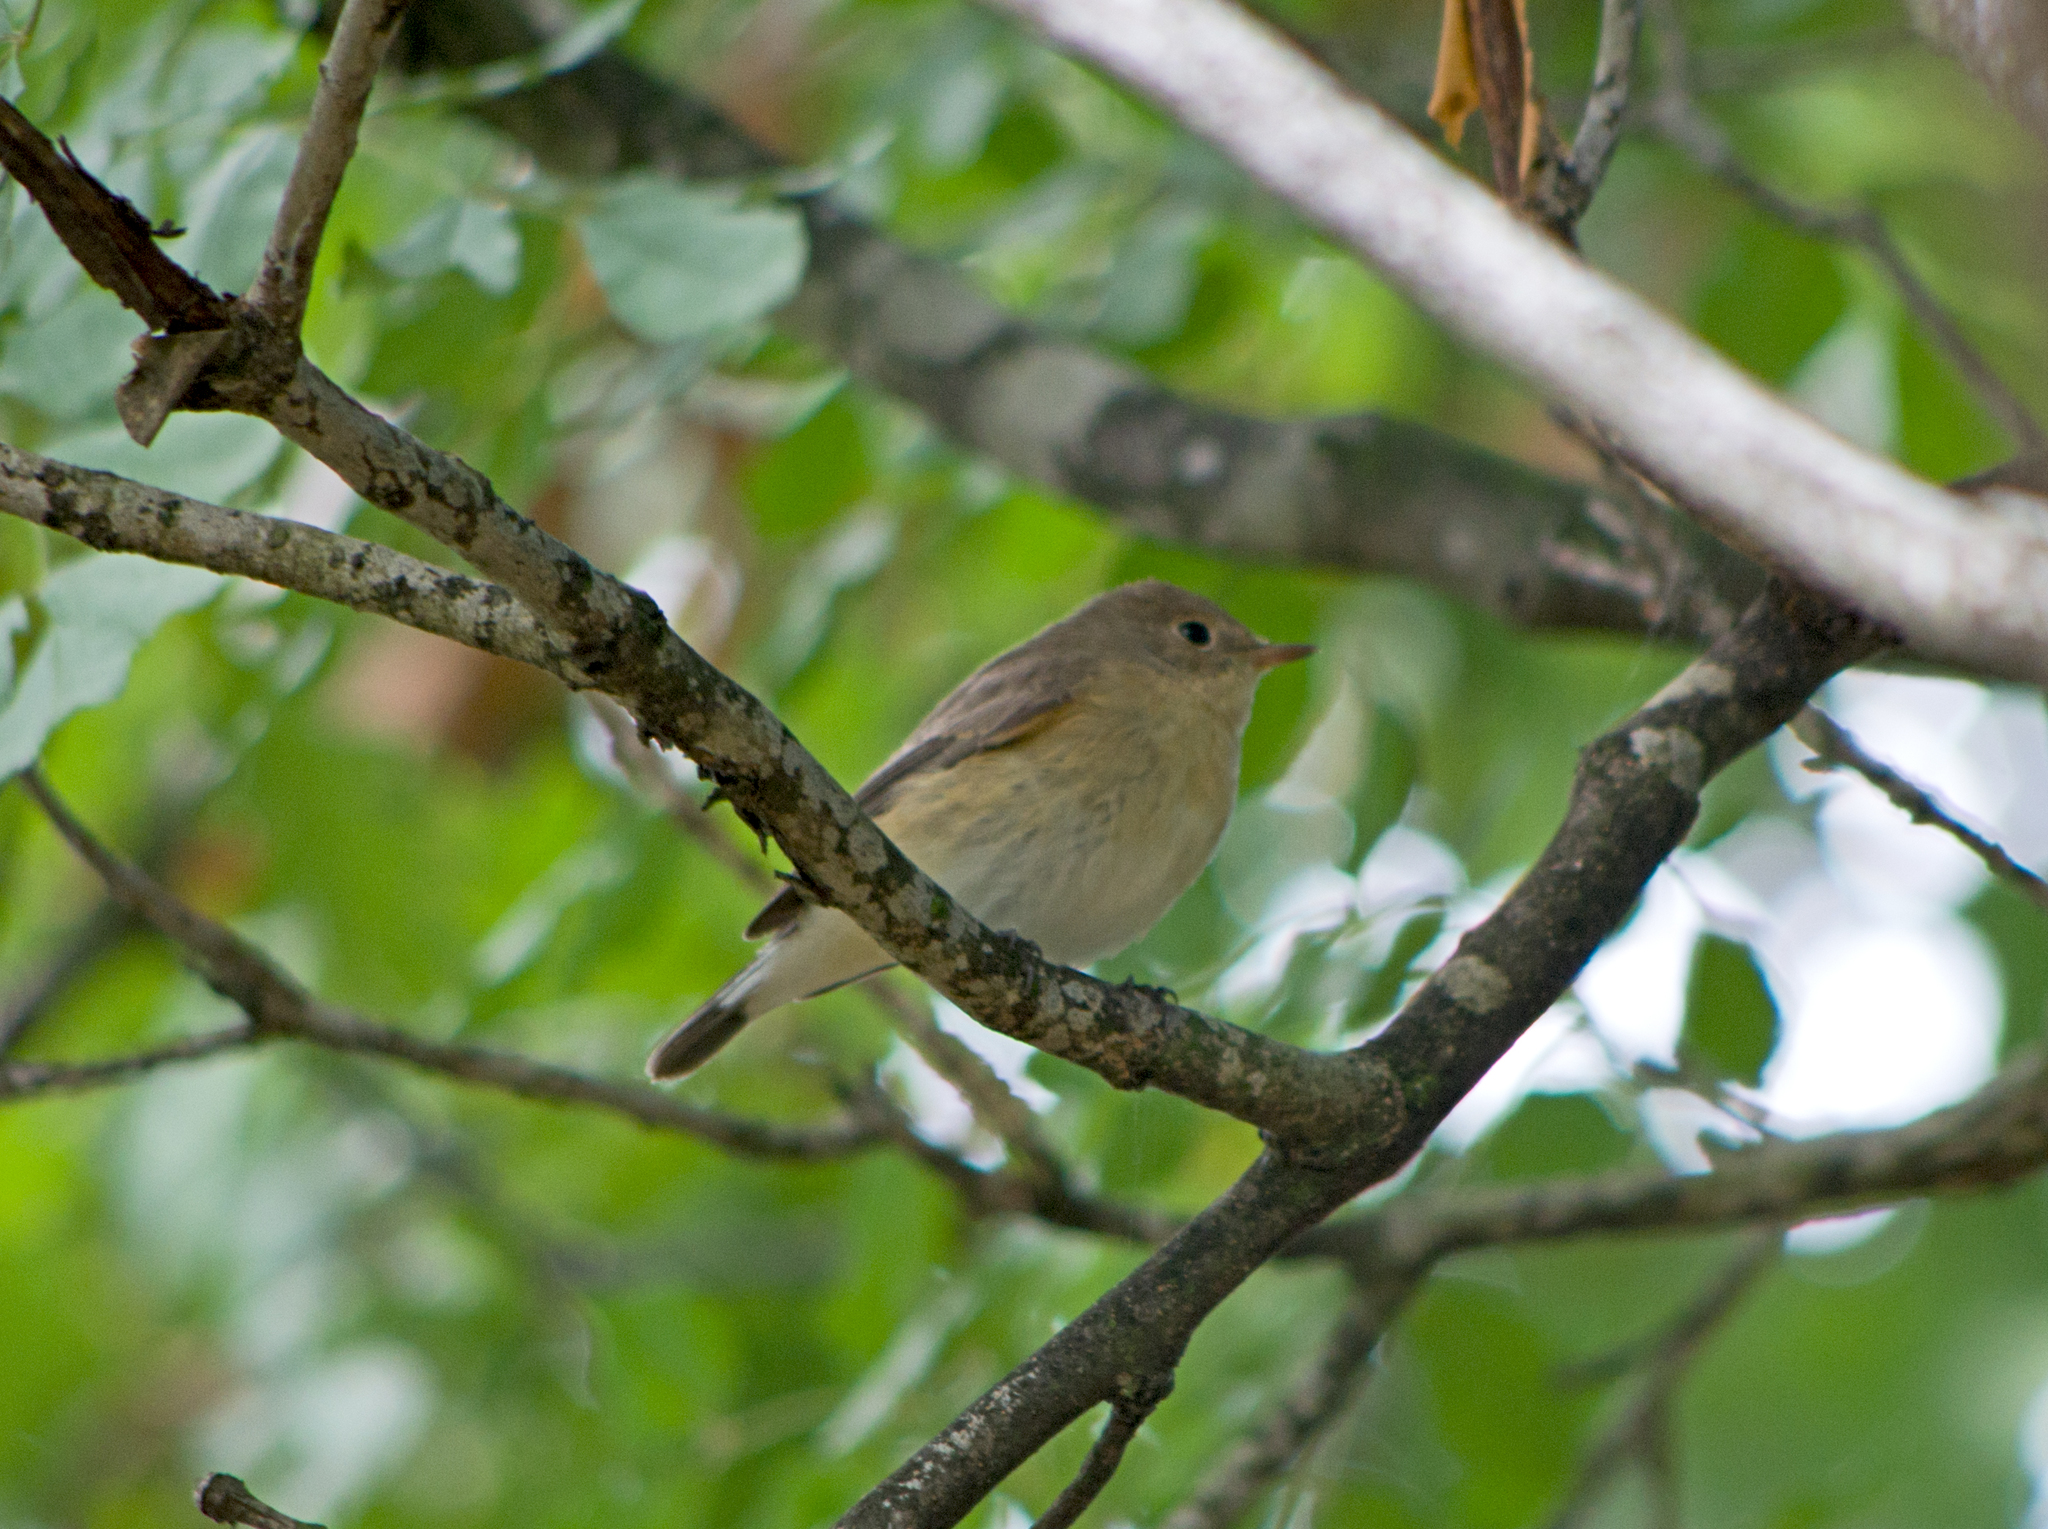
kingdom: Animalia
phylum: Chordata
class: Aves
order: Passeriformes
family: Muscicapidae
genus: Ficedula
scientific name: Ficedula parva
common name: Red-breasted flycatcher
